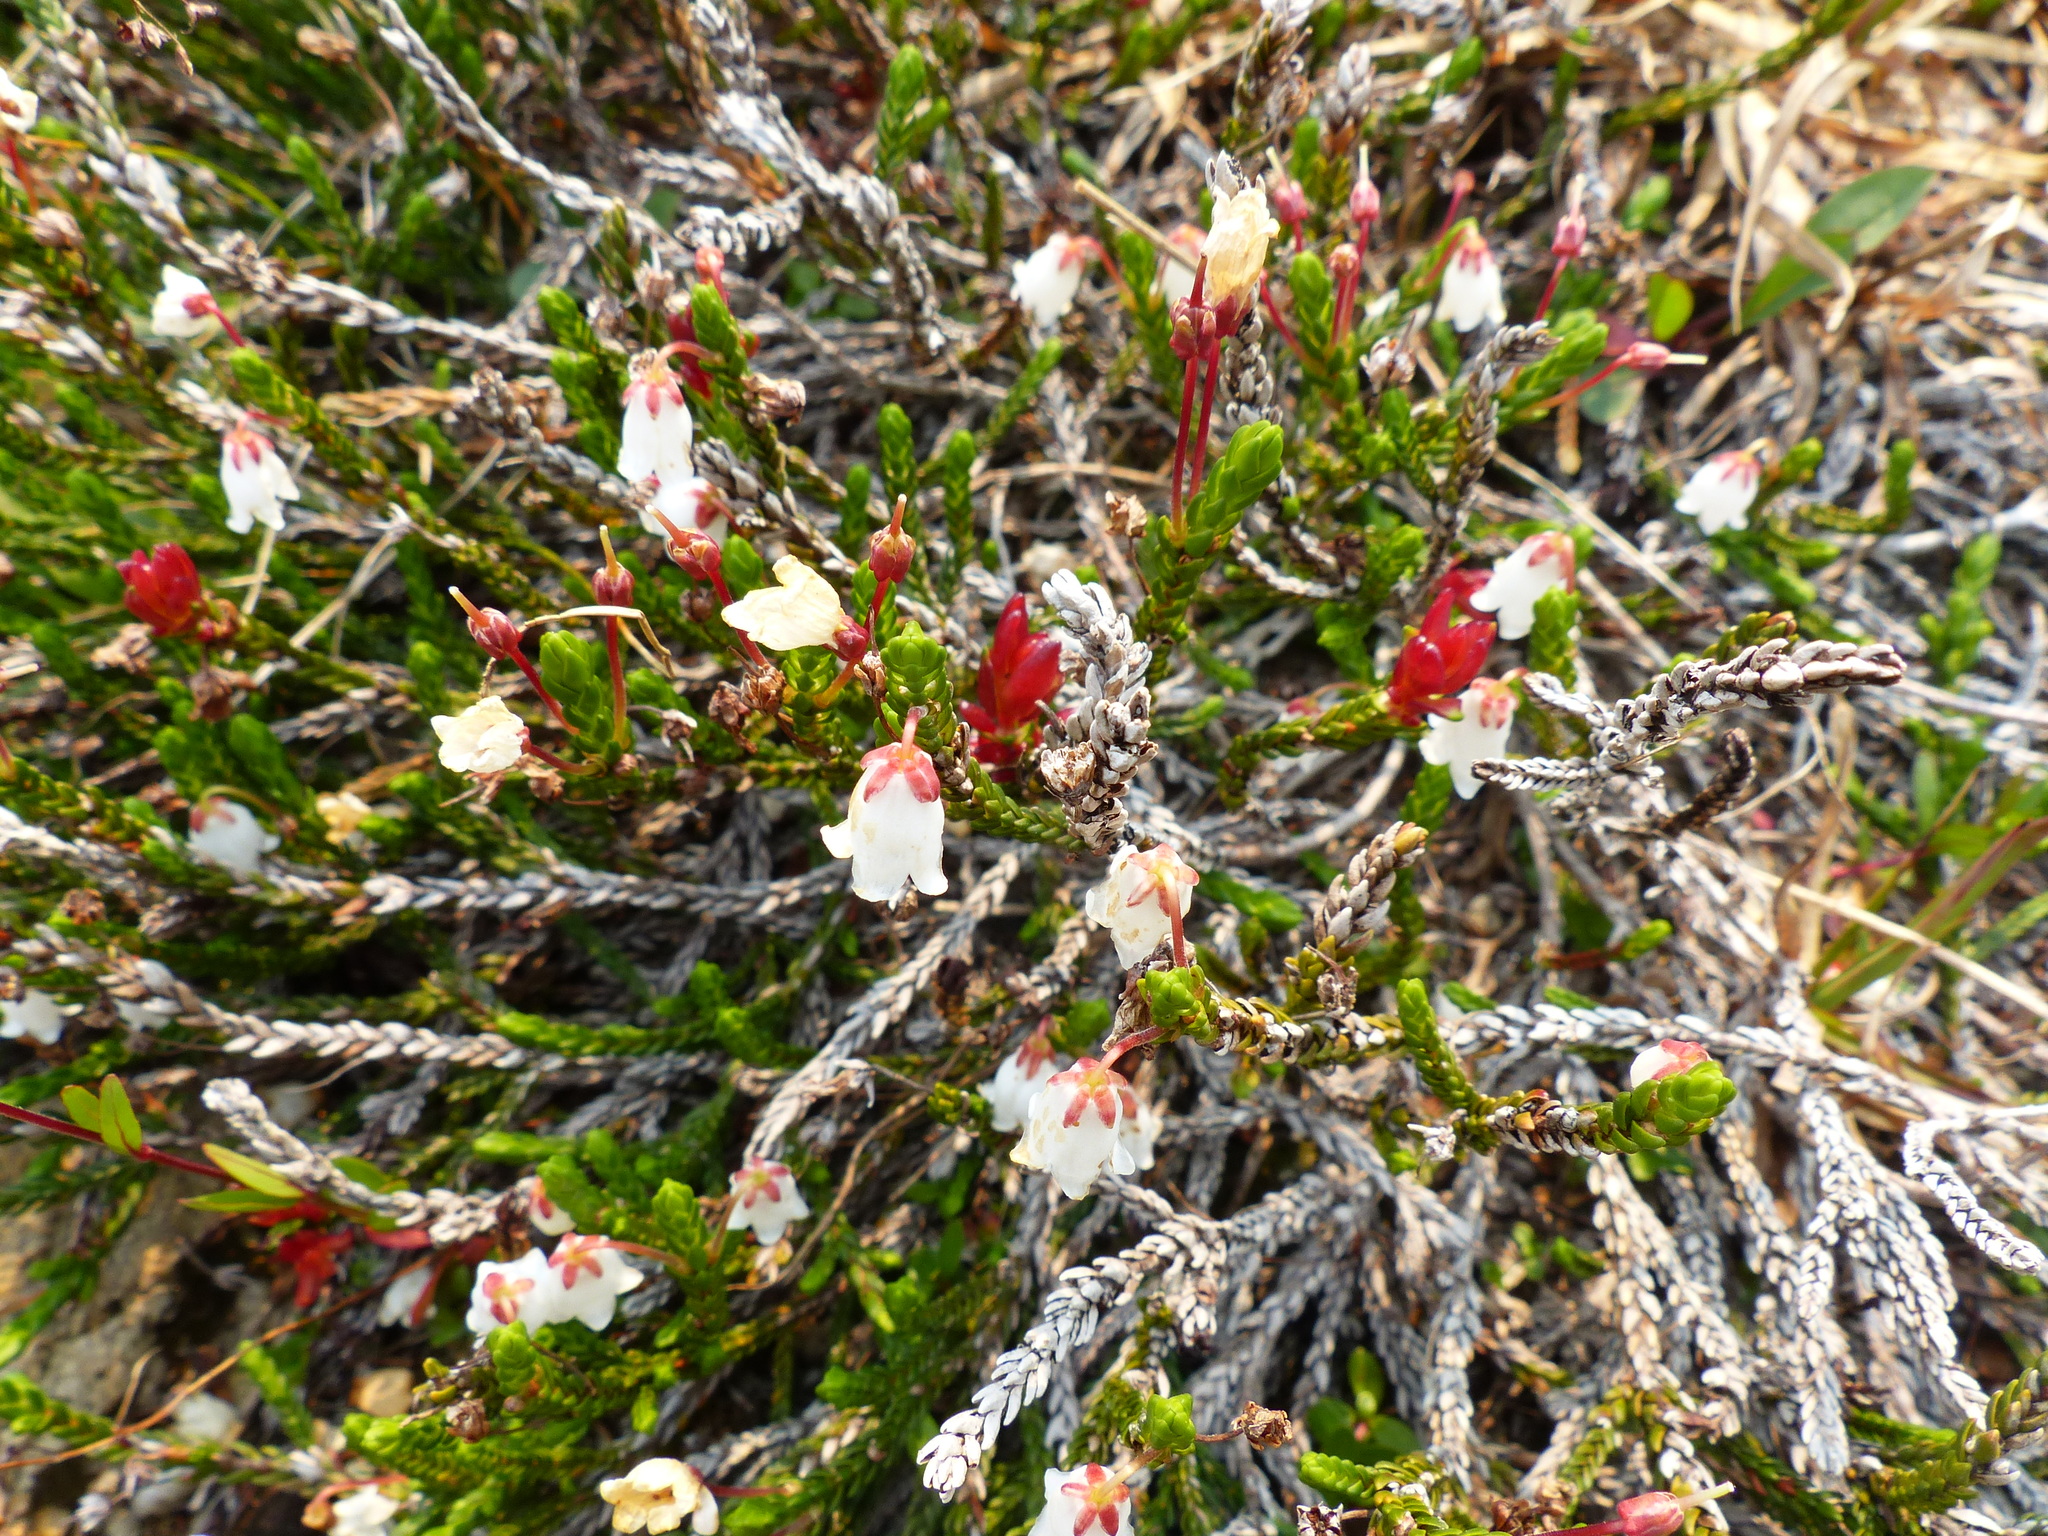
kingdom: Plantae
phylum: Tracheophyta
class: Magnoliopsida
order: Ericales
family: Ericaceae
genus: Cassiope
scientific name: Cassiope mertensiana
